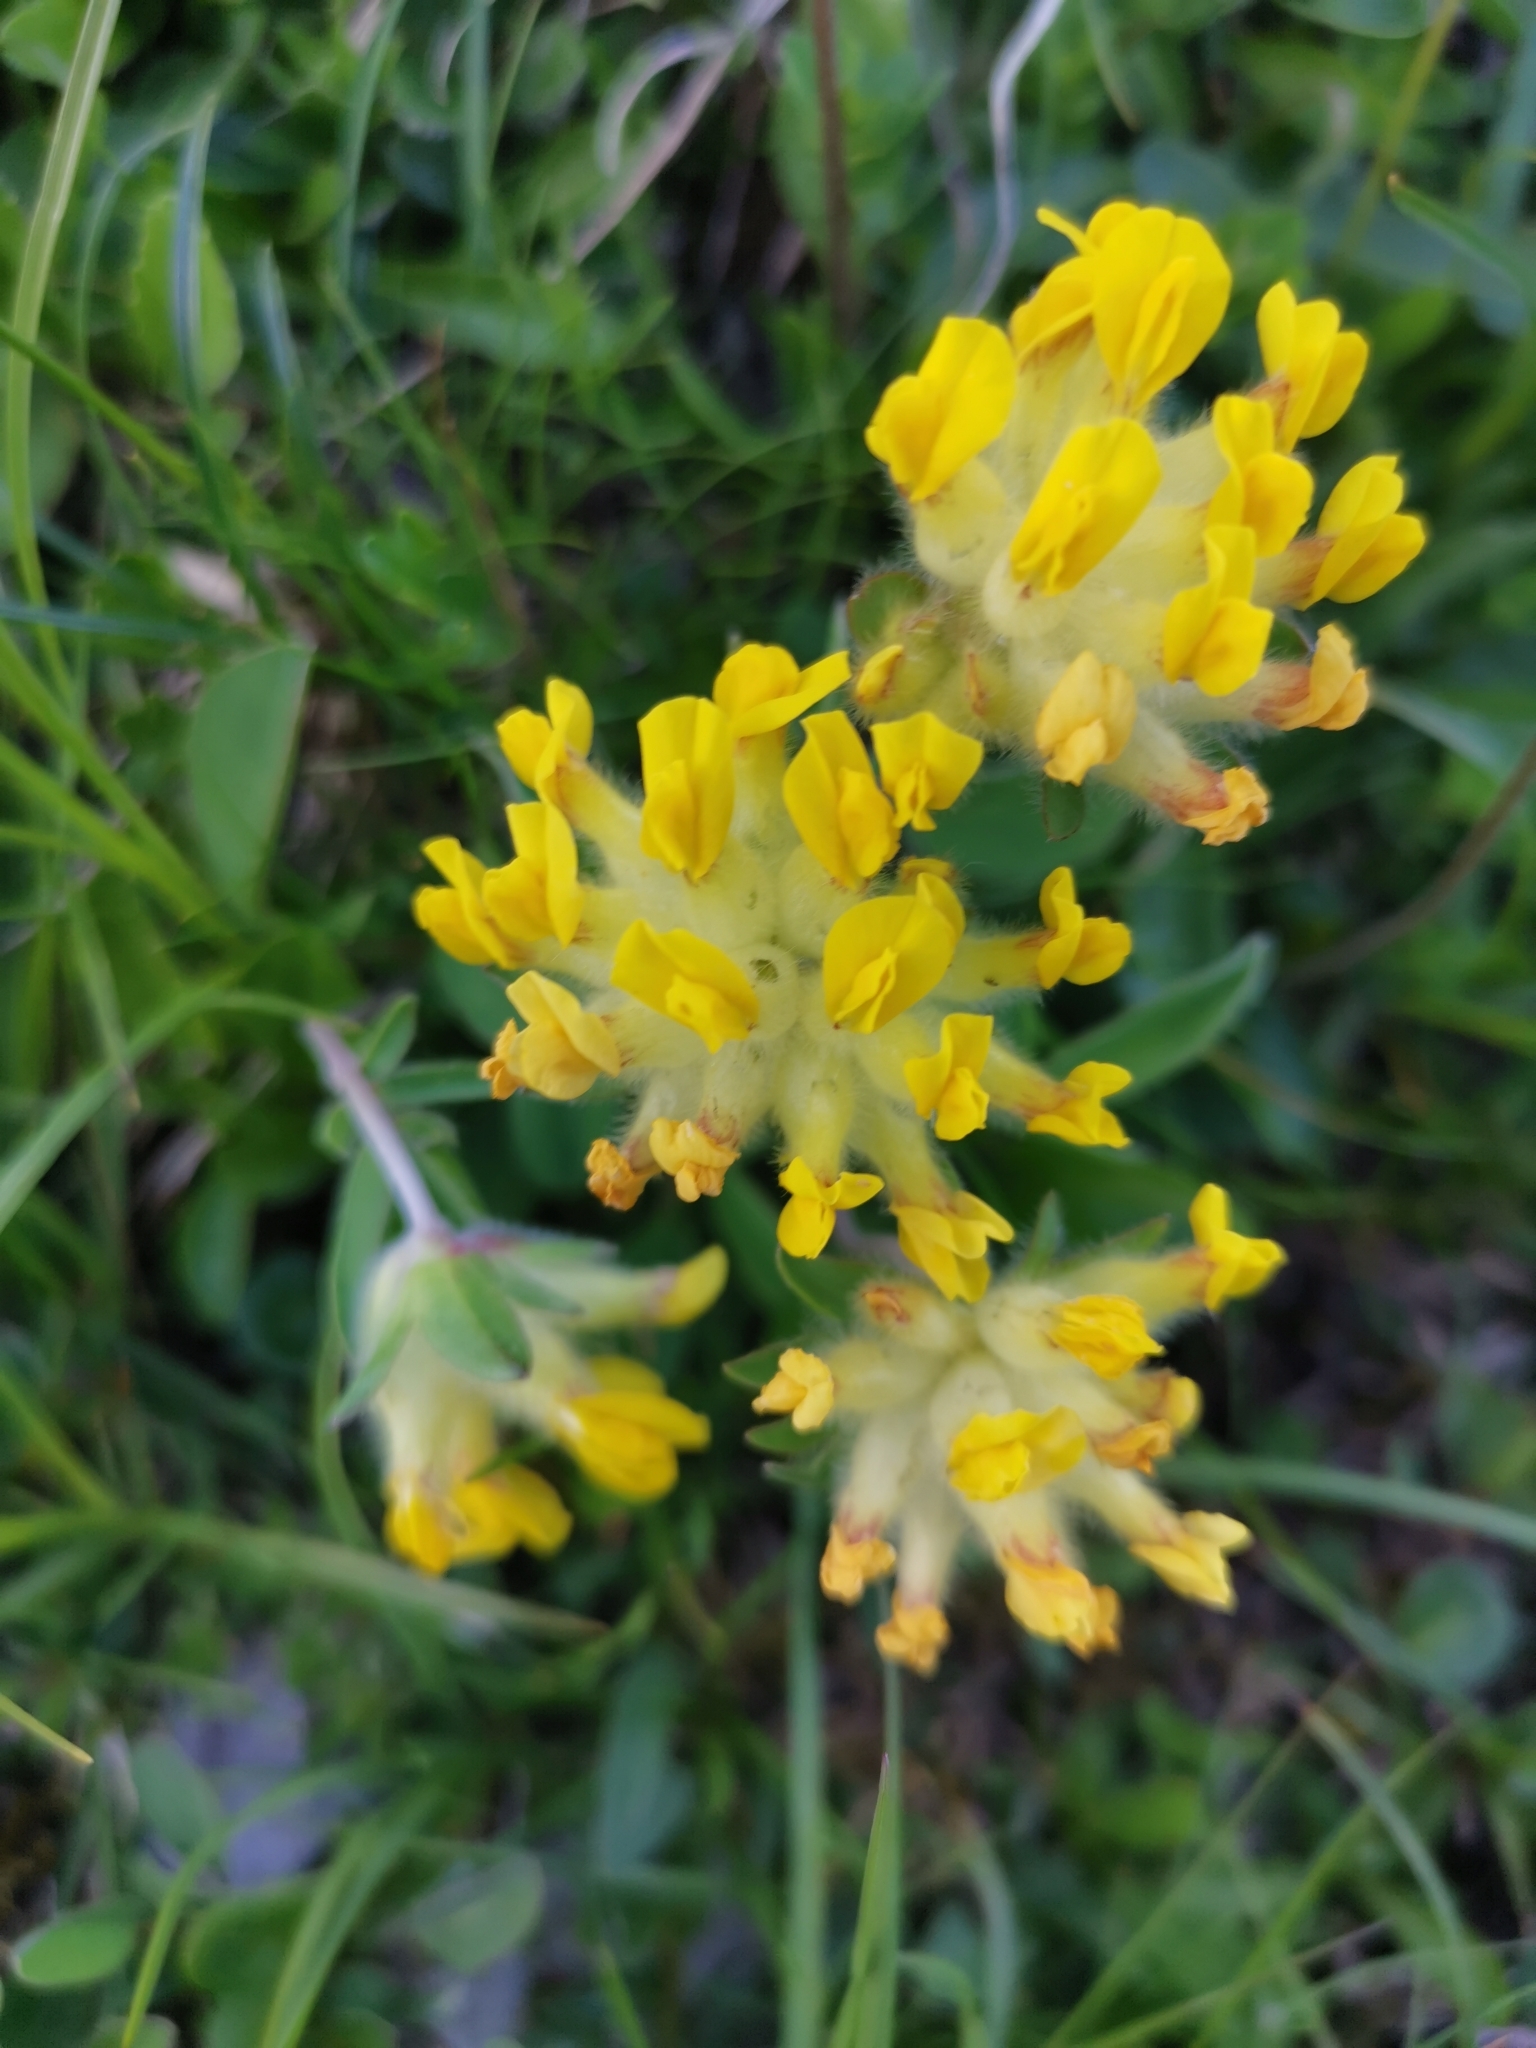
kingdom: Plantae
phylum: Tracheophyta
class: Magnoliopsida
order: Fabales
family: Fabaceae
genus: Anthyllis
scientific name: Anthyllis vulneraria
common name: Kidney vetch
